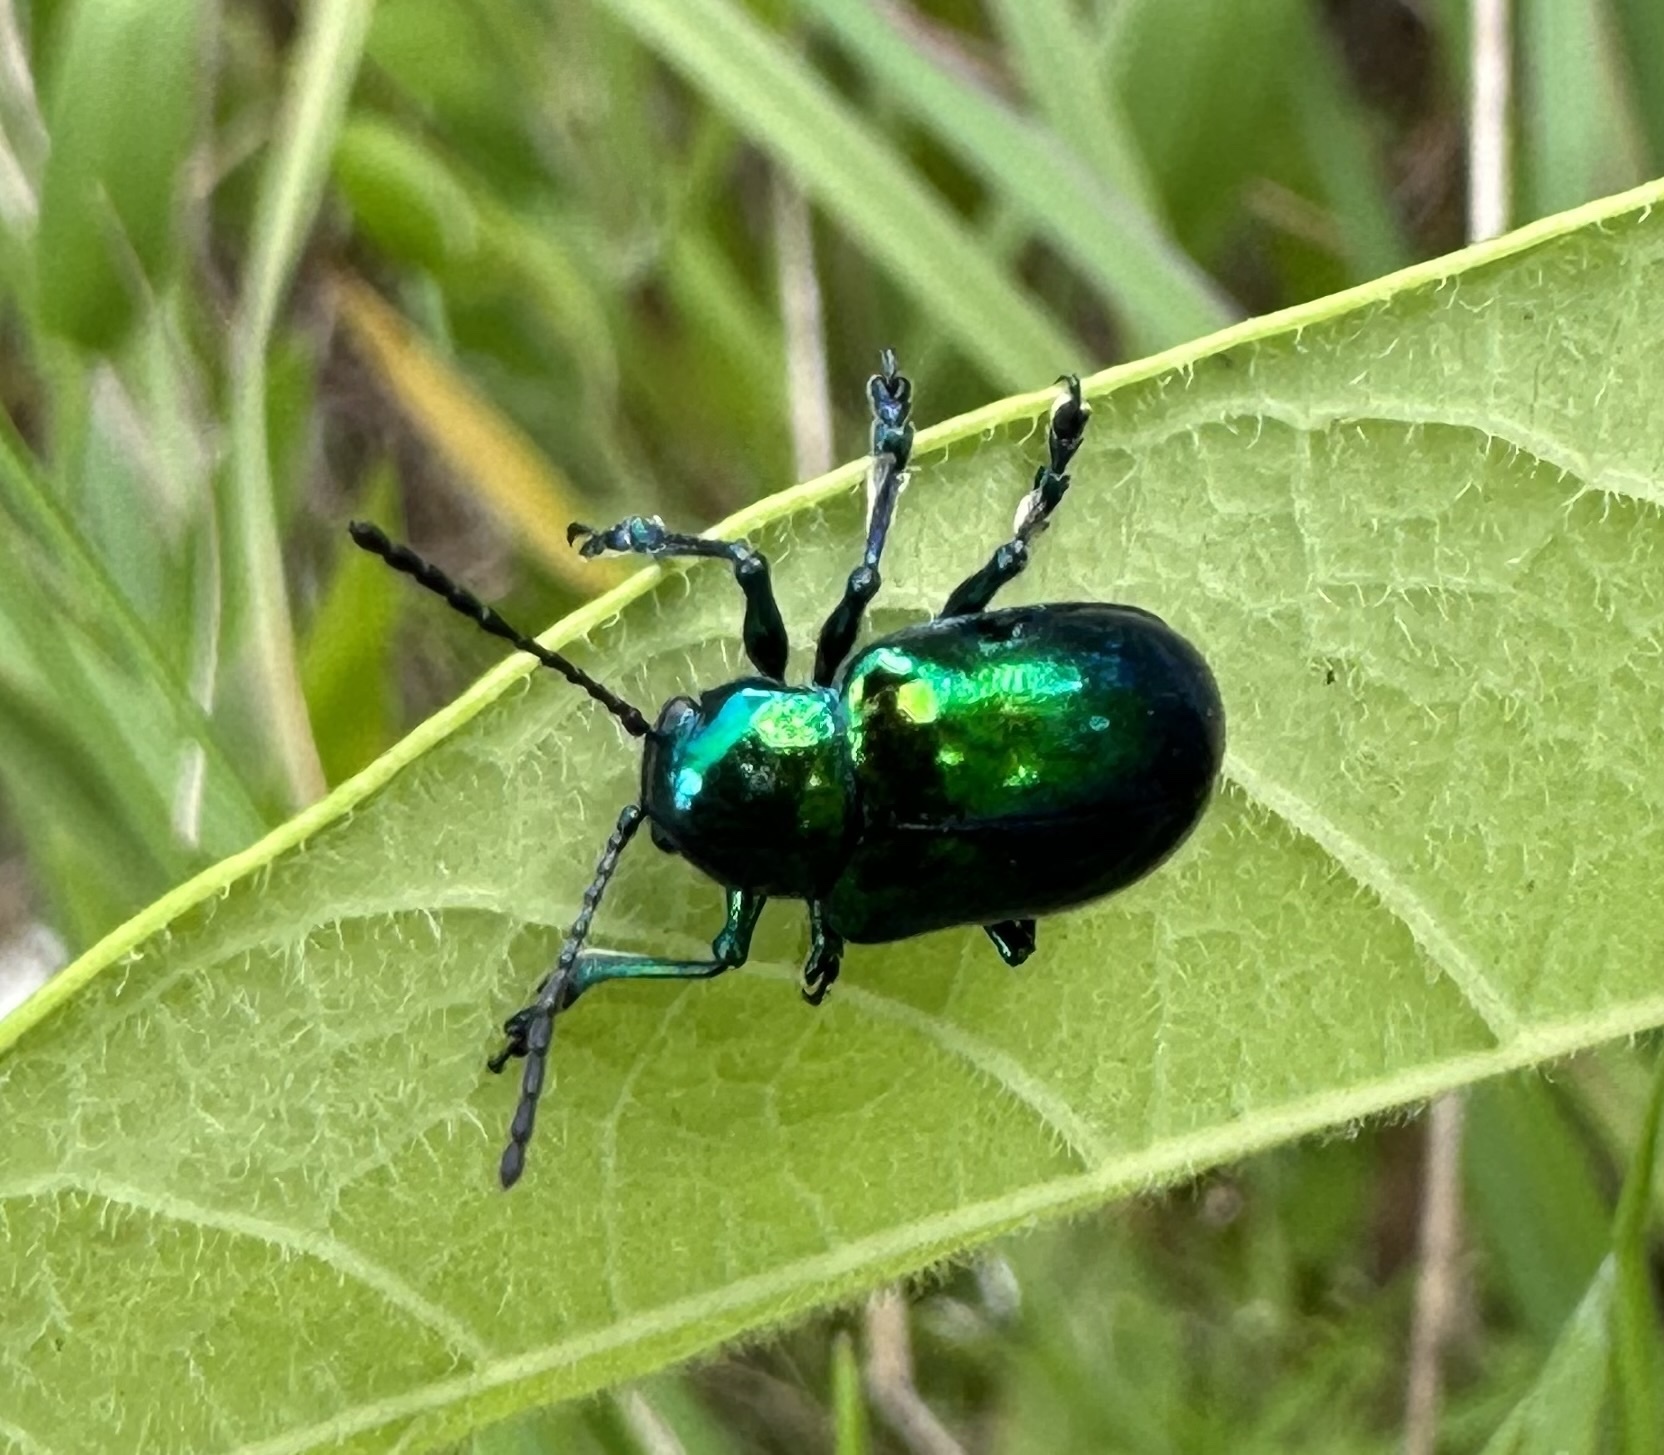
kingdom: Animalia
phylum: Arthropoda
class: Insecta
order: Coleoptera
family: Chrysomelidae
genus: Chrysochus
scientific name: Chrysochus auratus
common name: Dogbane leaf beetle
